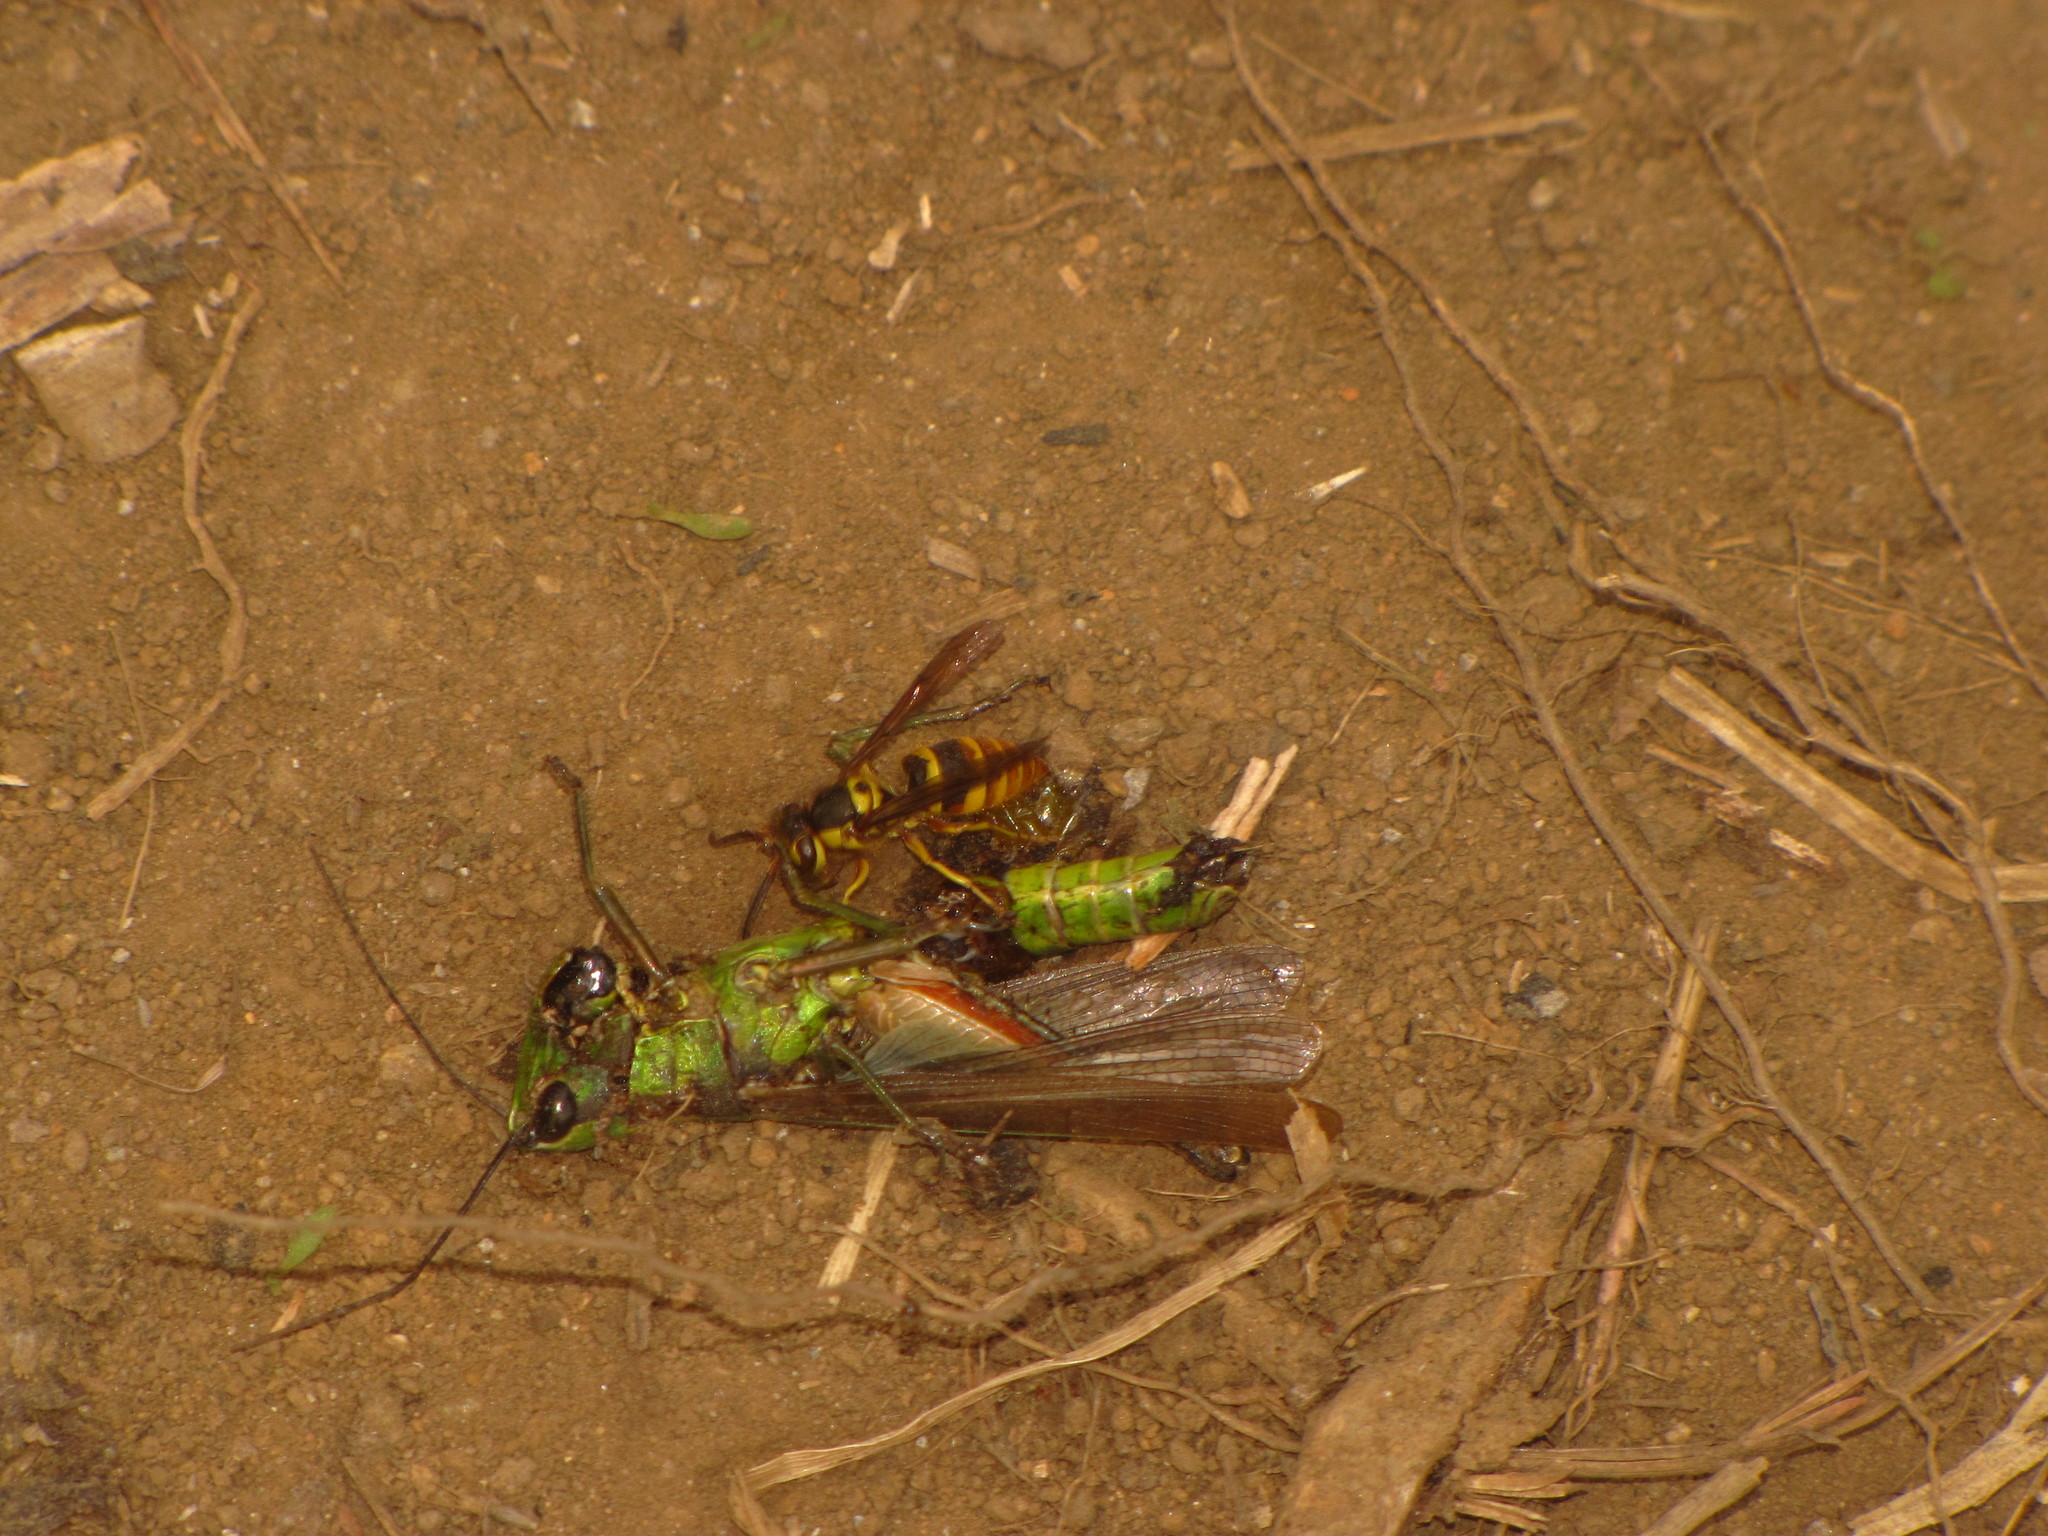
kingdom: Animalia
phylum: Arthropoda
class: Insecta
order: Hymenoptera
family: Vespidae
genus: Vespula
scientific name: Vespula koreensis
